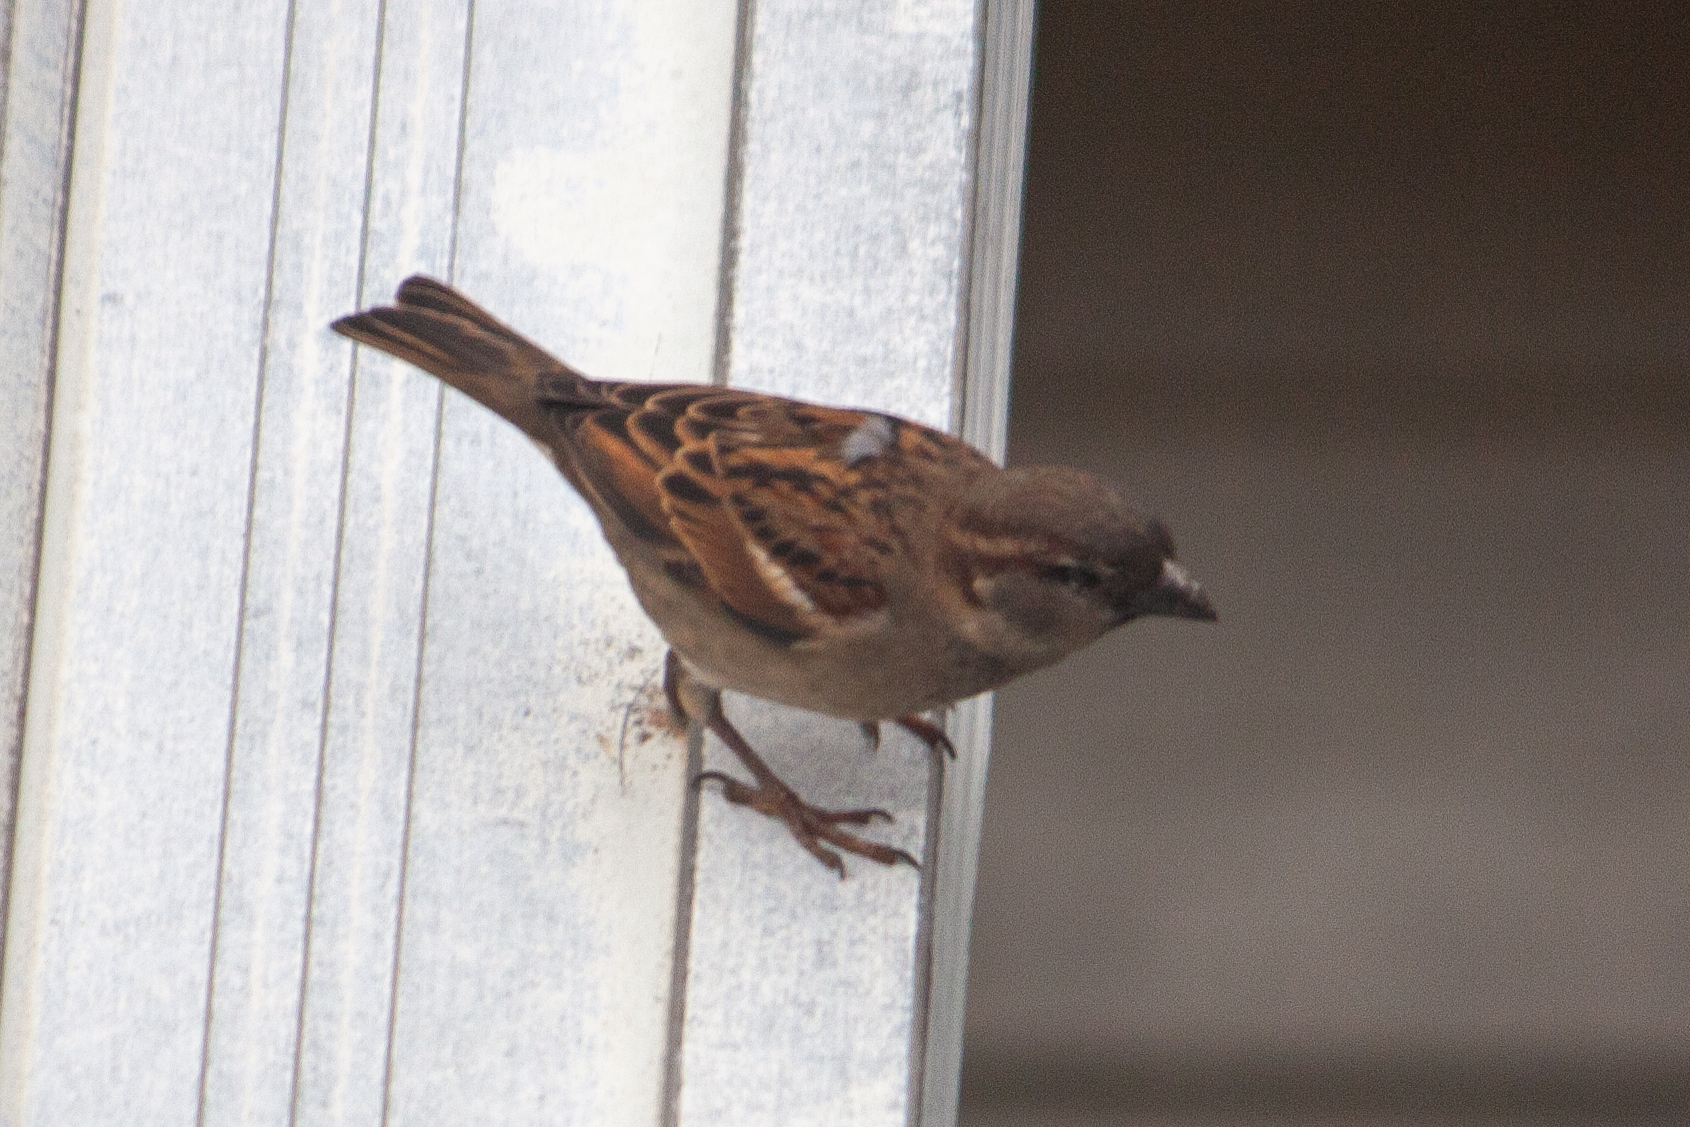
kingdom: Animalia
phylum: Chordata
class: Aves
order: Passeriformes
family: Passeridae
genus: Passer
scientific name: Passer domesticus
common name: House sparrow
